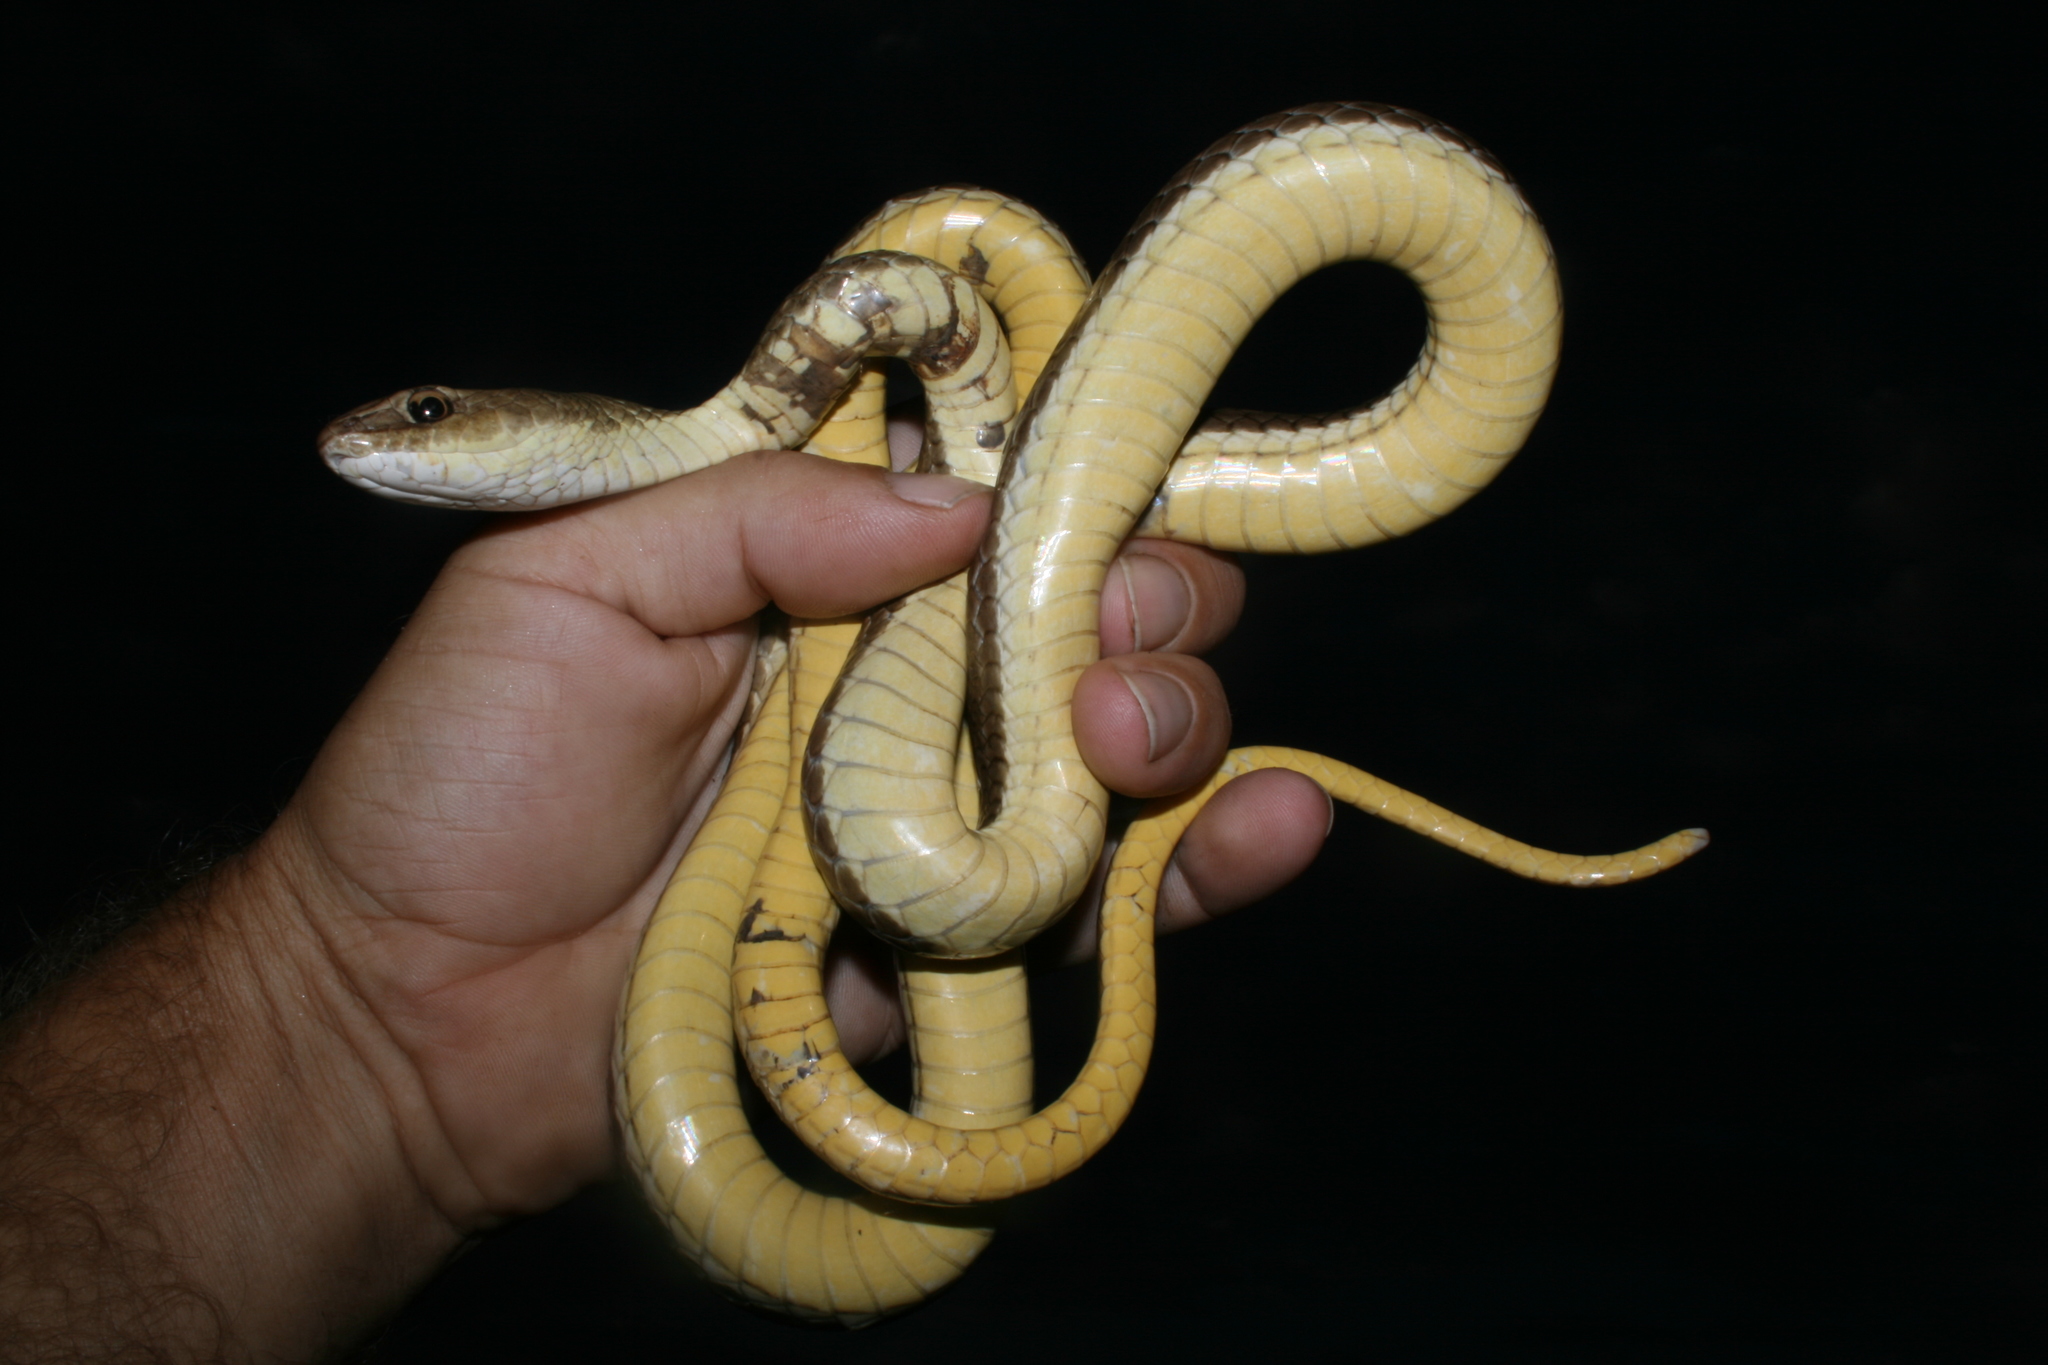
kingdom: Animalia
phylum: Chordata
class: Squamata
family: Psammophiidae
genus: Psammophis
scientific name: Psammophis rukwae
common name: Lake rukwa sand snake
